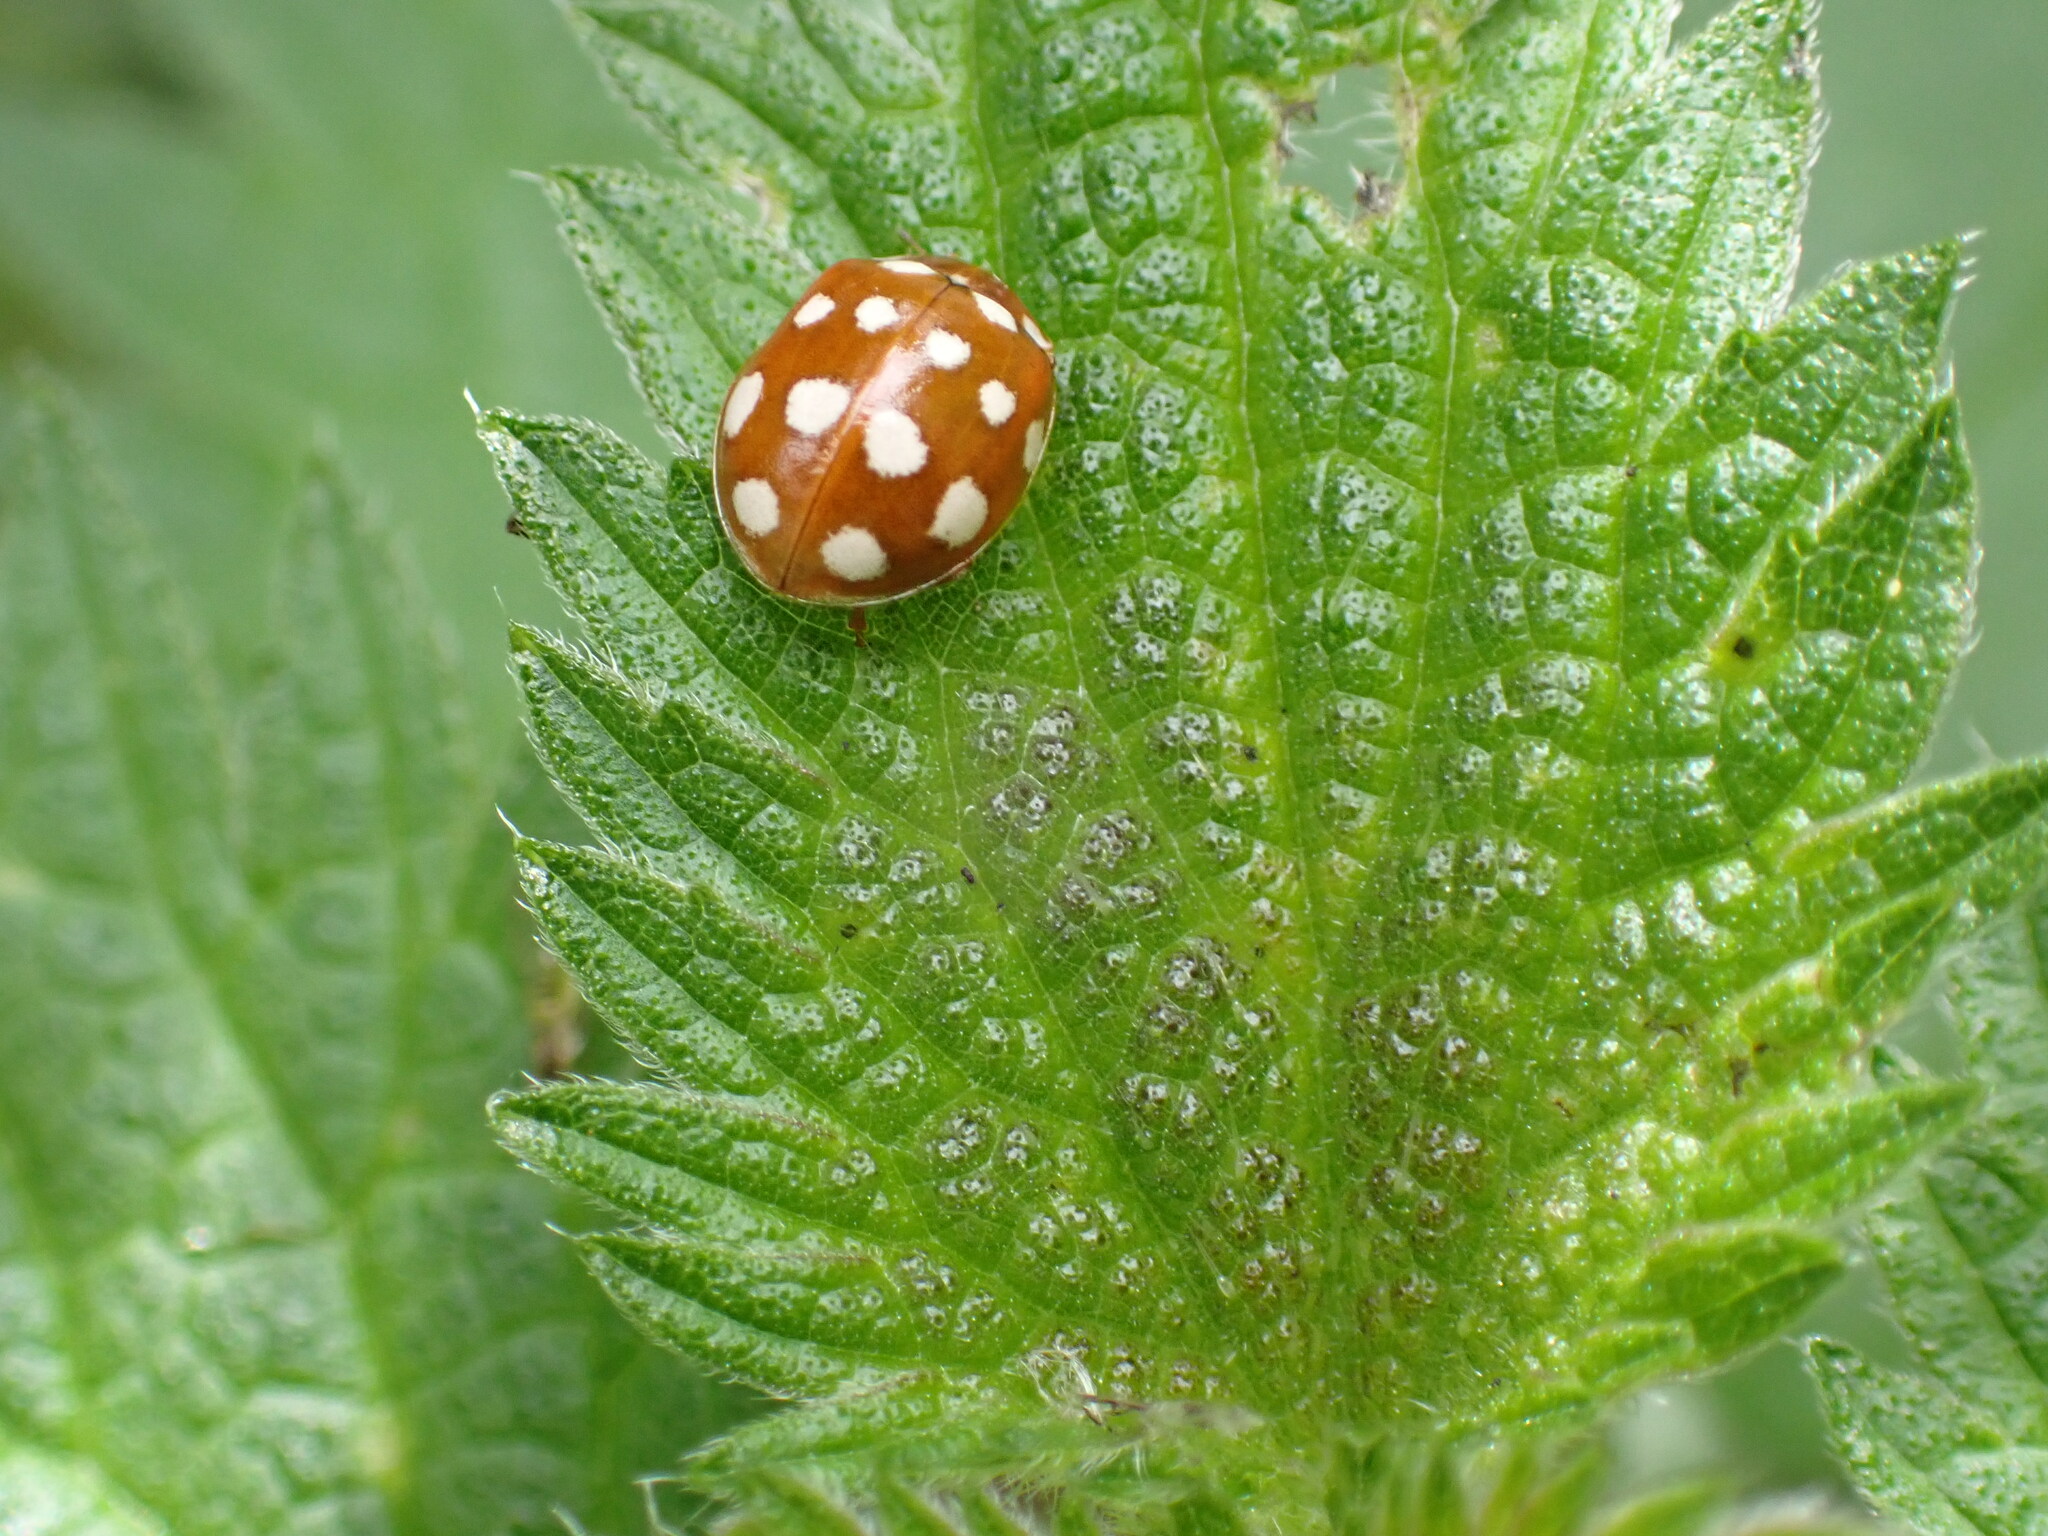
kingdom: Animalia
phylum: Arthropoda
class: Insecta
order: Coleoptera
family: Coccinellidae
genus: Calvia
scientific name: Calvia quatuordecimguttata
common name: Cream-spot ladybird
